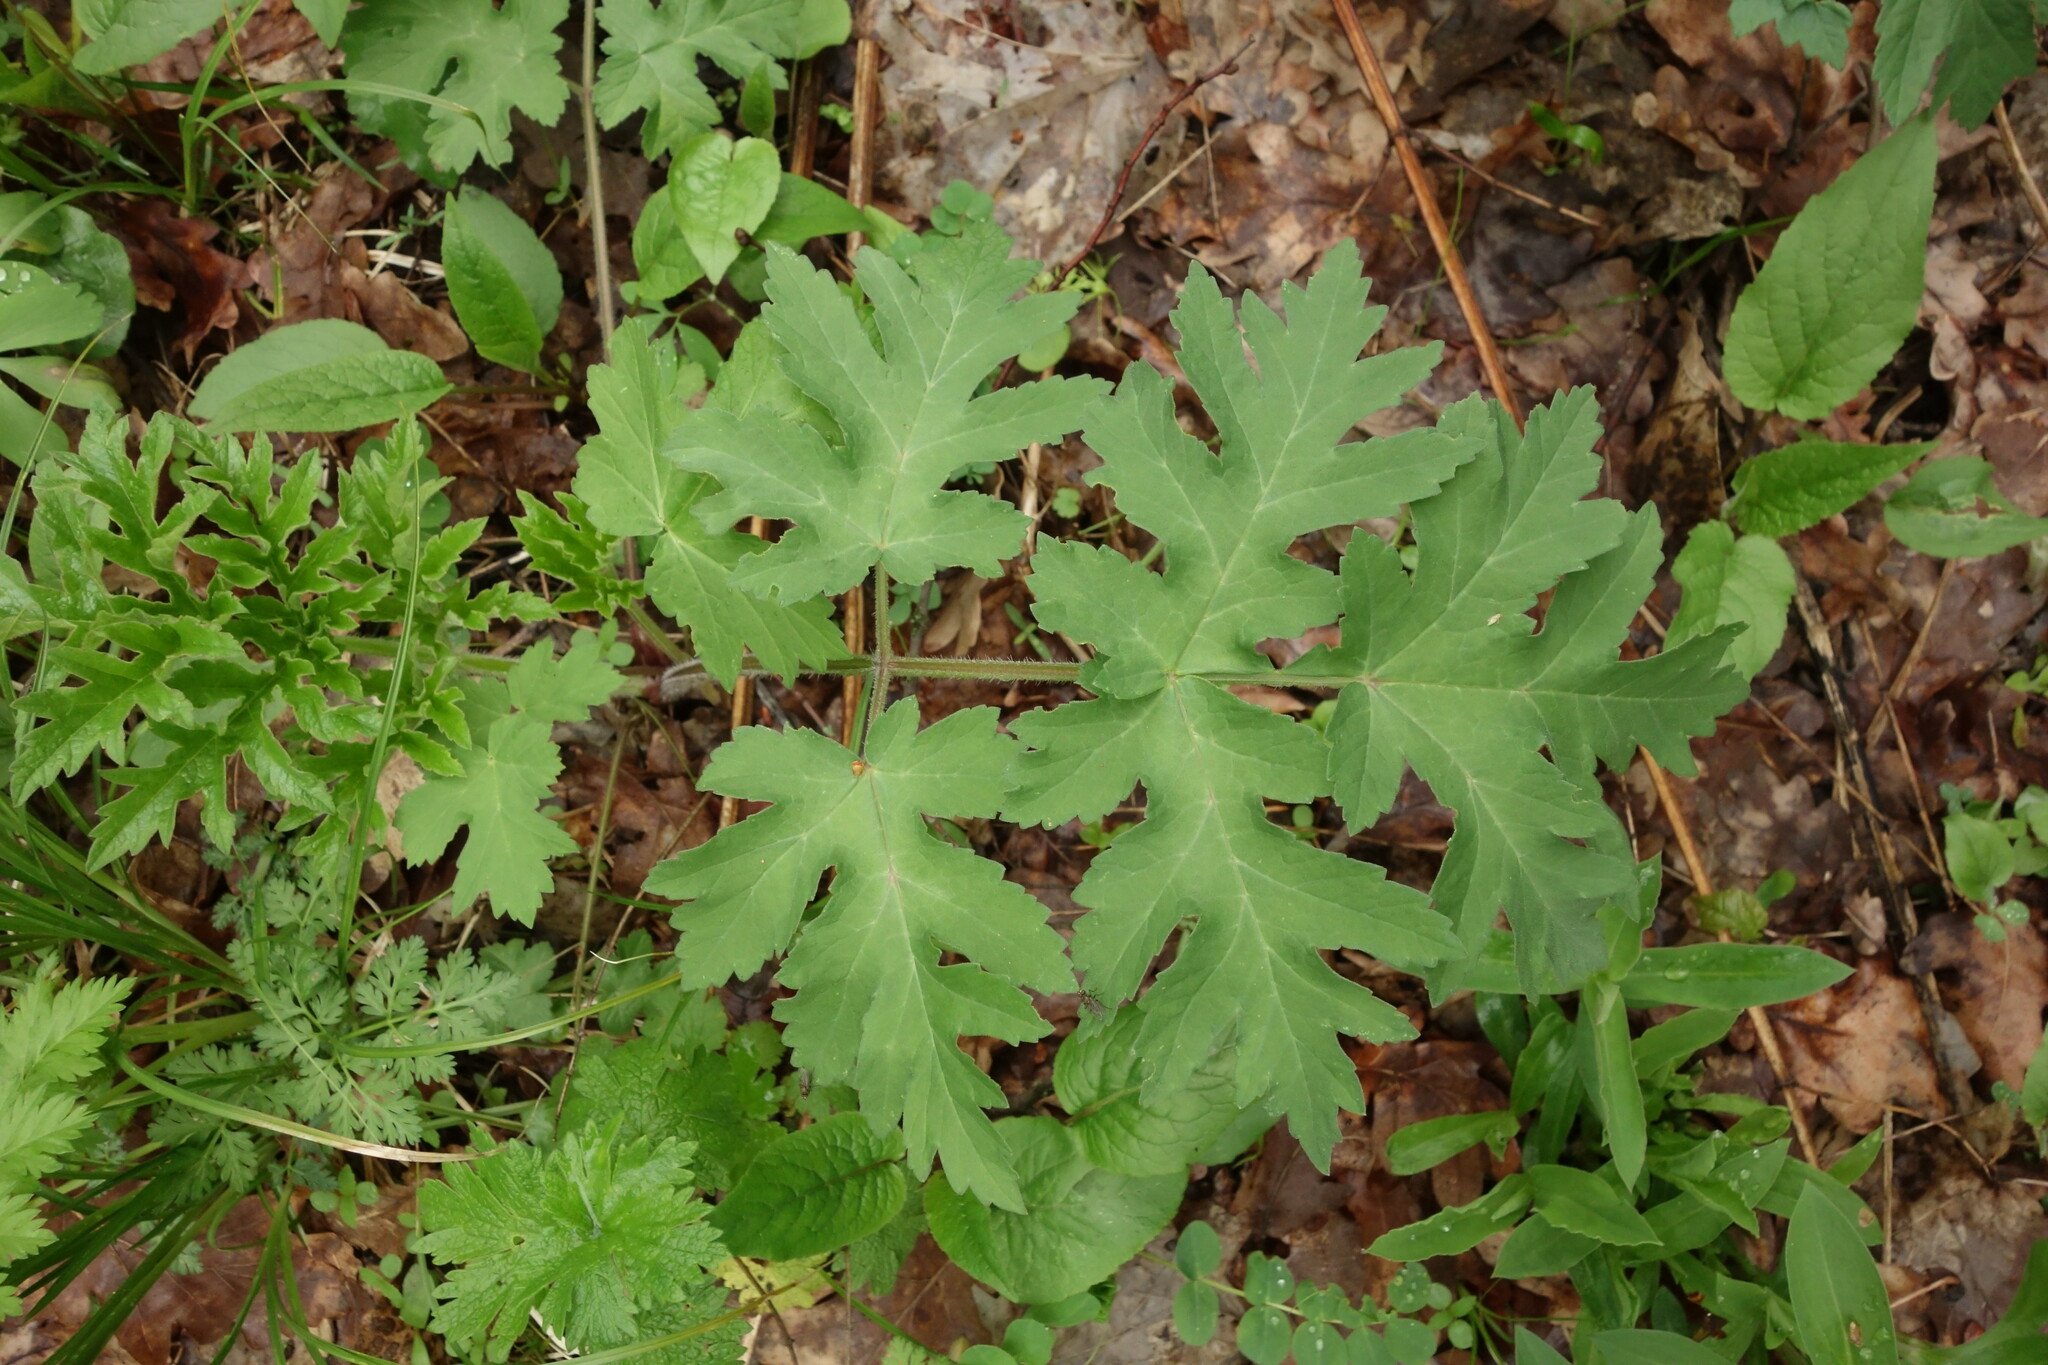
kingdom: Plantae
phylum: Tracheophyta
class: Magnoliopsida
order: Apiales
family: Apiaceae
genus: Heracleum
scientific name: Heracleum sphondylium
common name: Hogweed
